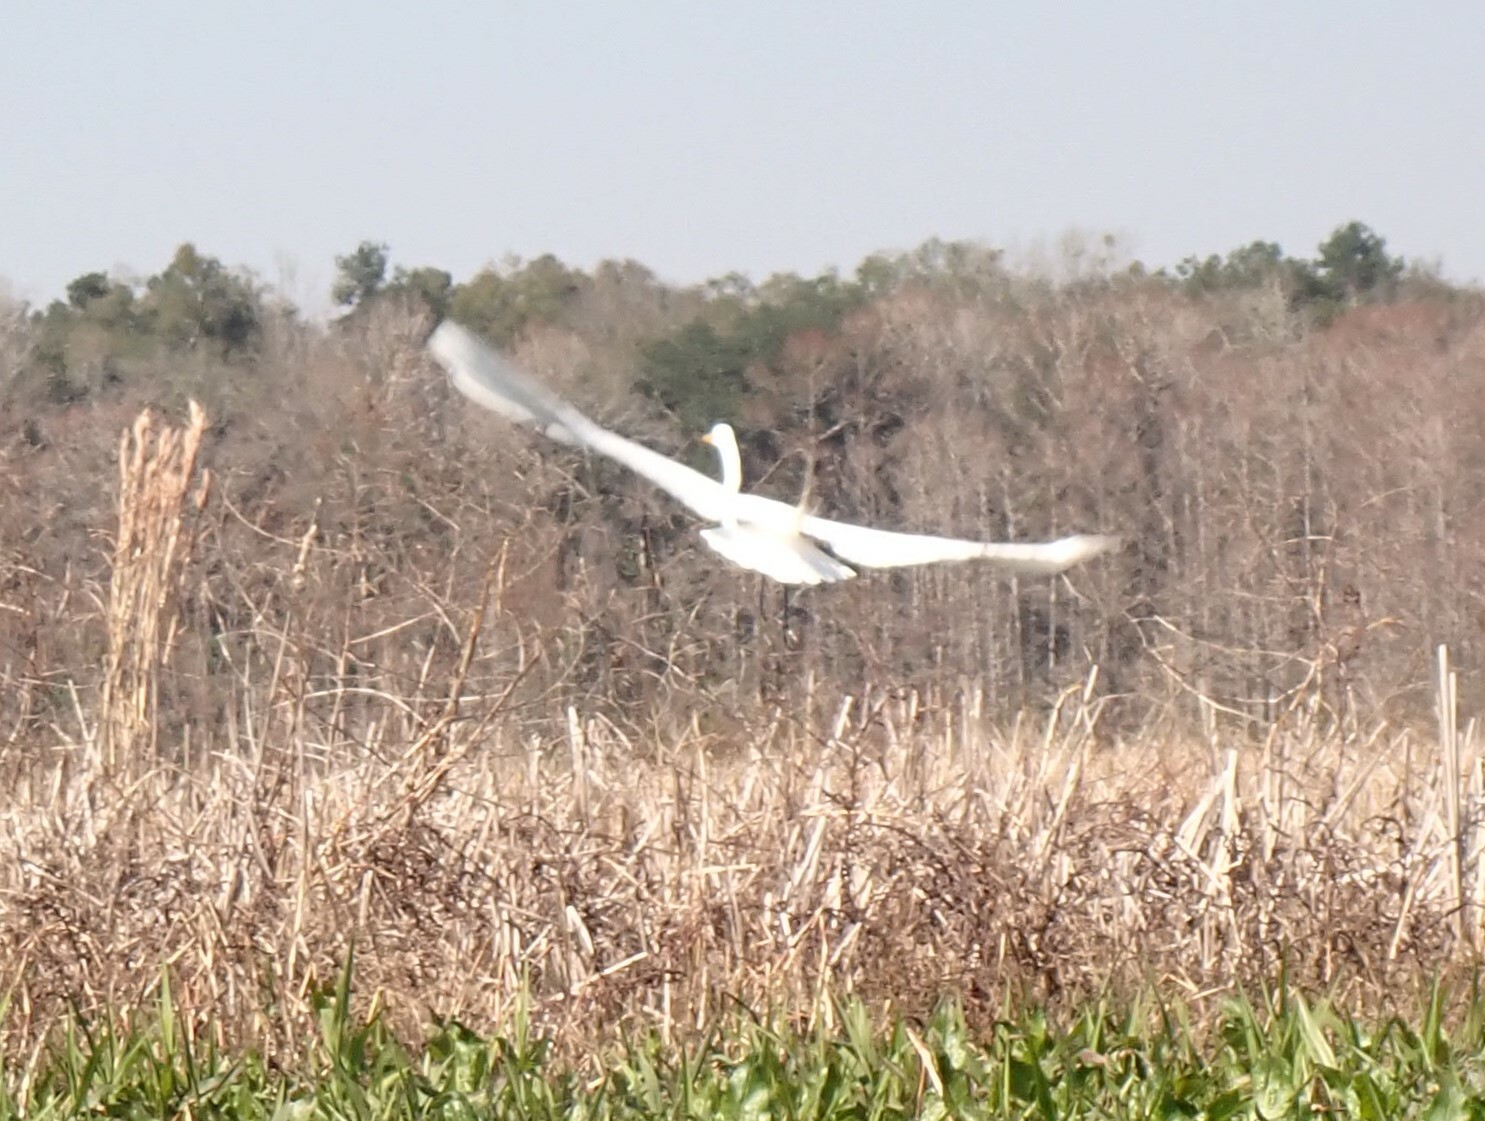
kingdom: Animalia
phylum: Chordata
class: Aves
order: Pelecaniformes
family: Ardeidae
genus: Ardea
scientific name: Ardea alba
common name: Great egret
